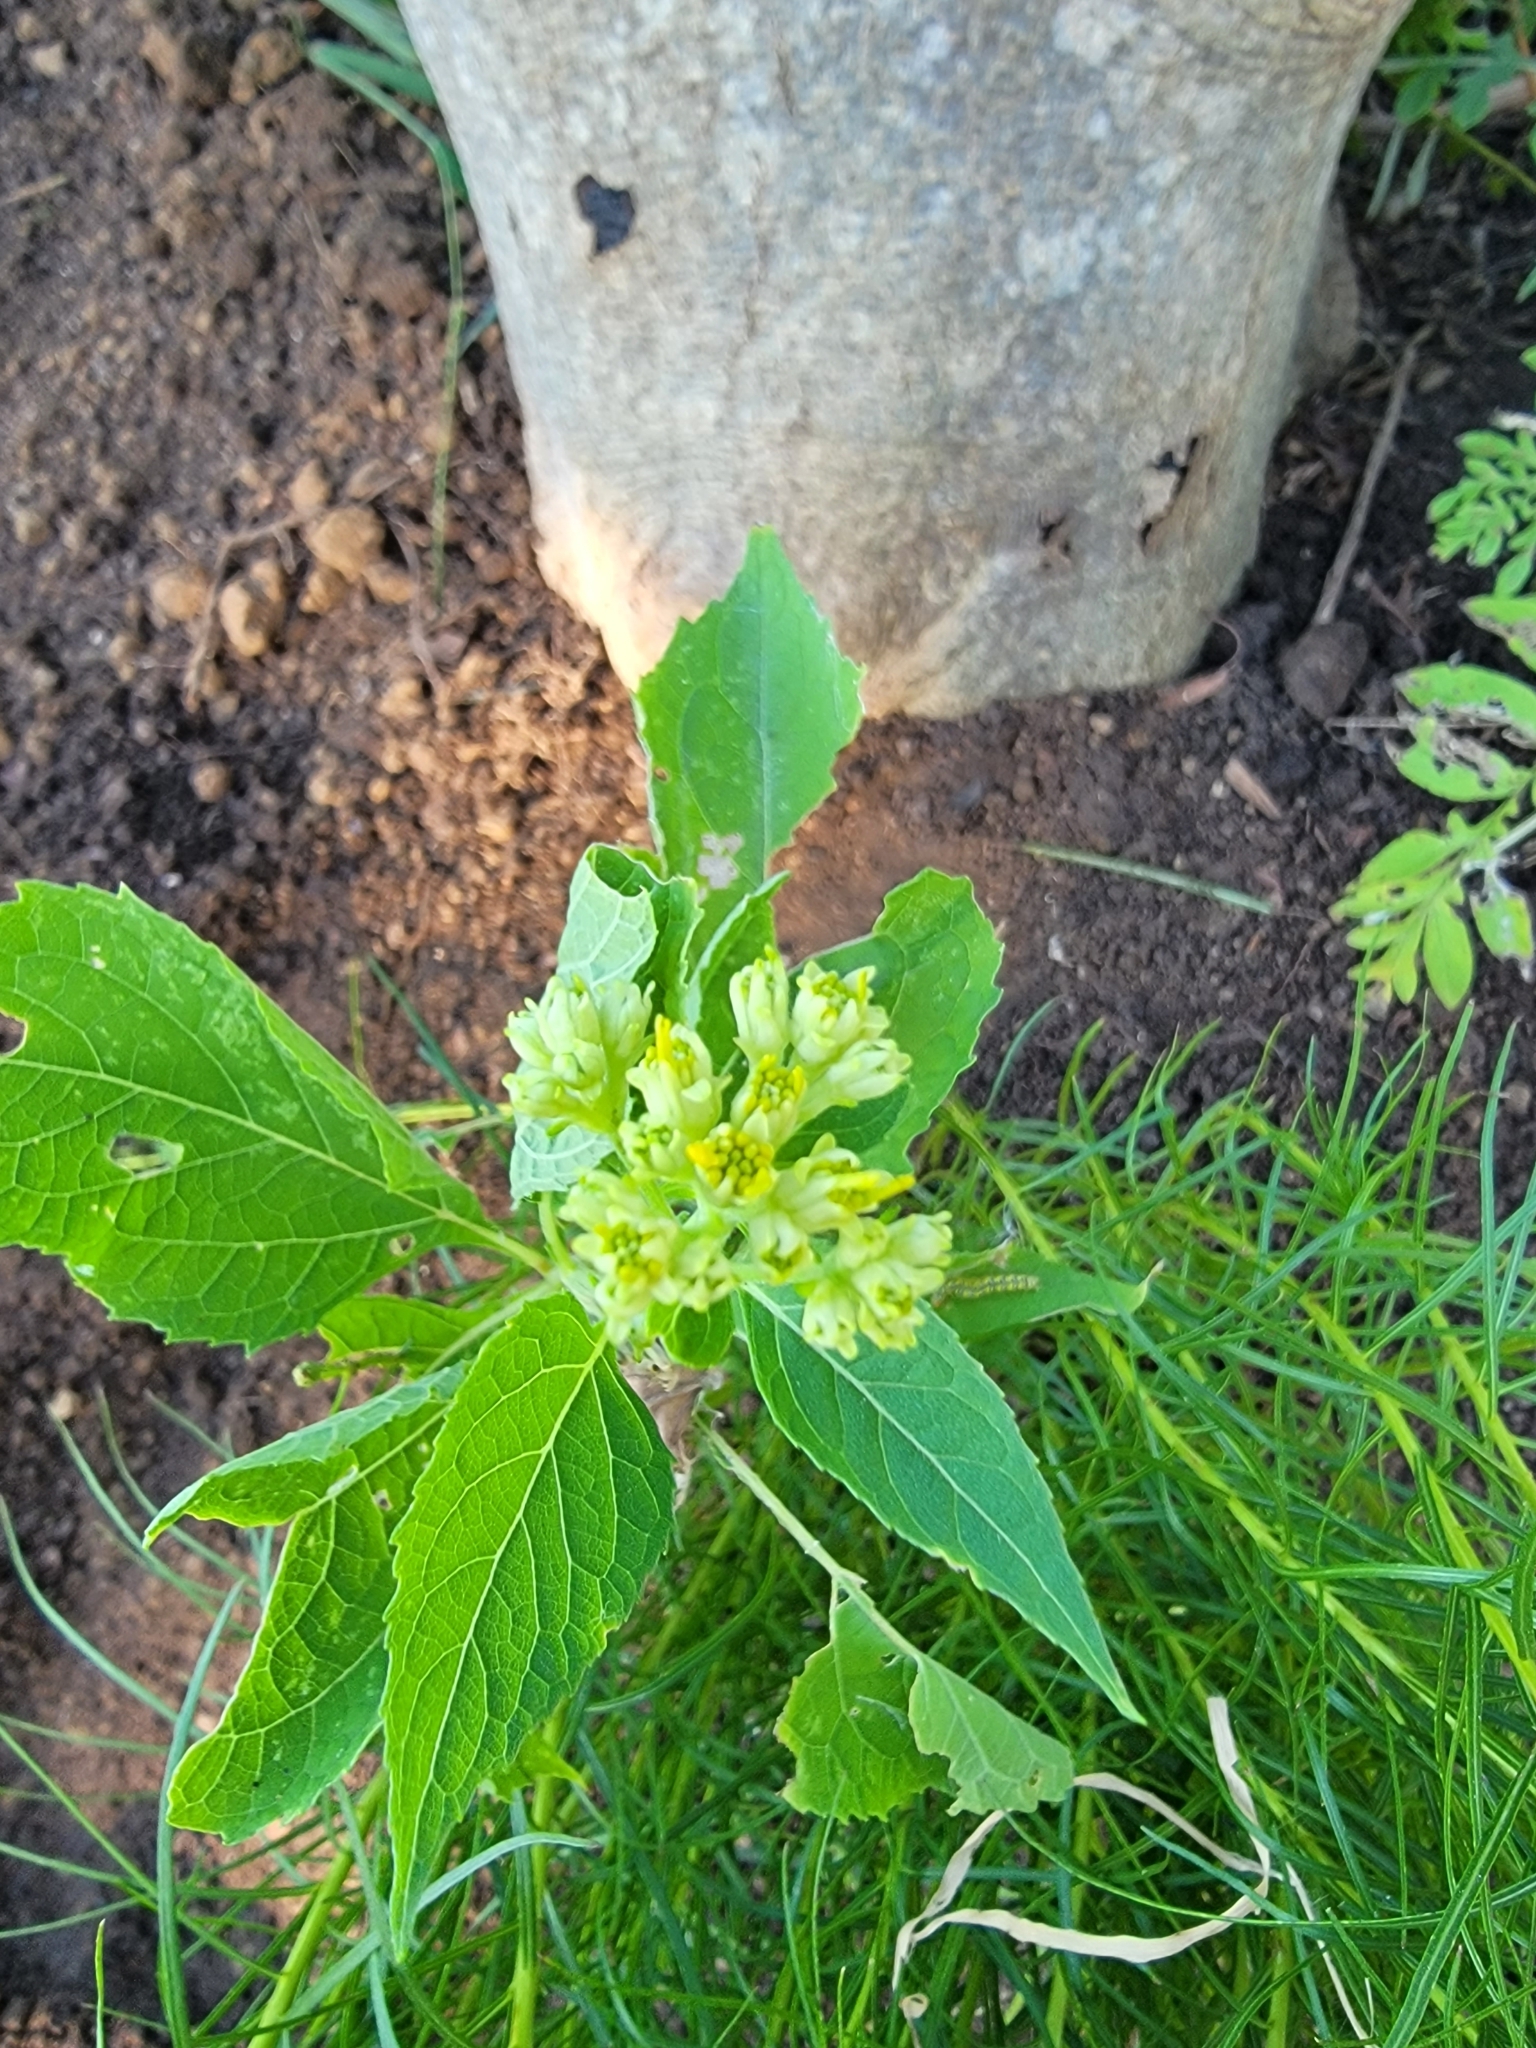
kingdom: Plantae
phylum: Tracheophyta
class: Magnoliopsida
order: Asterales
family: Asteraceae
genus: Verbesina
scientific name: Verbesina occidentalis
